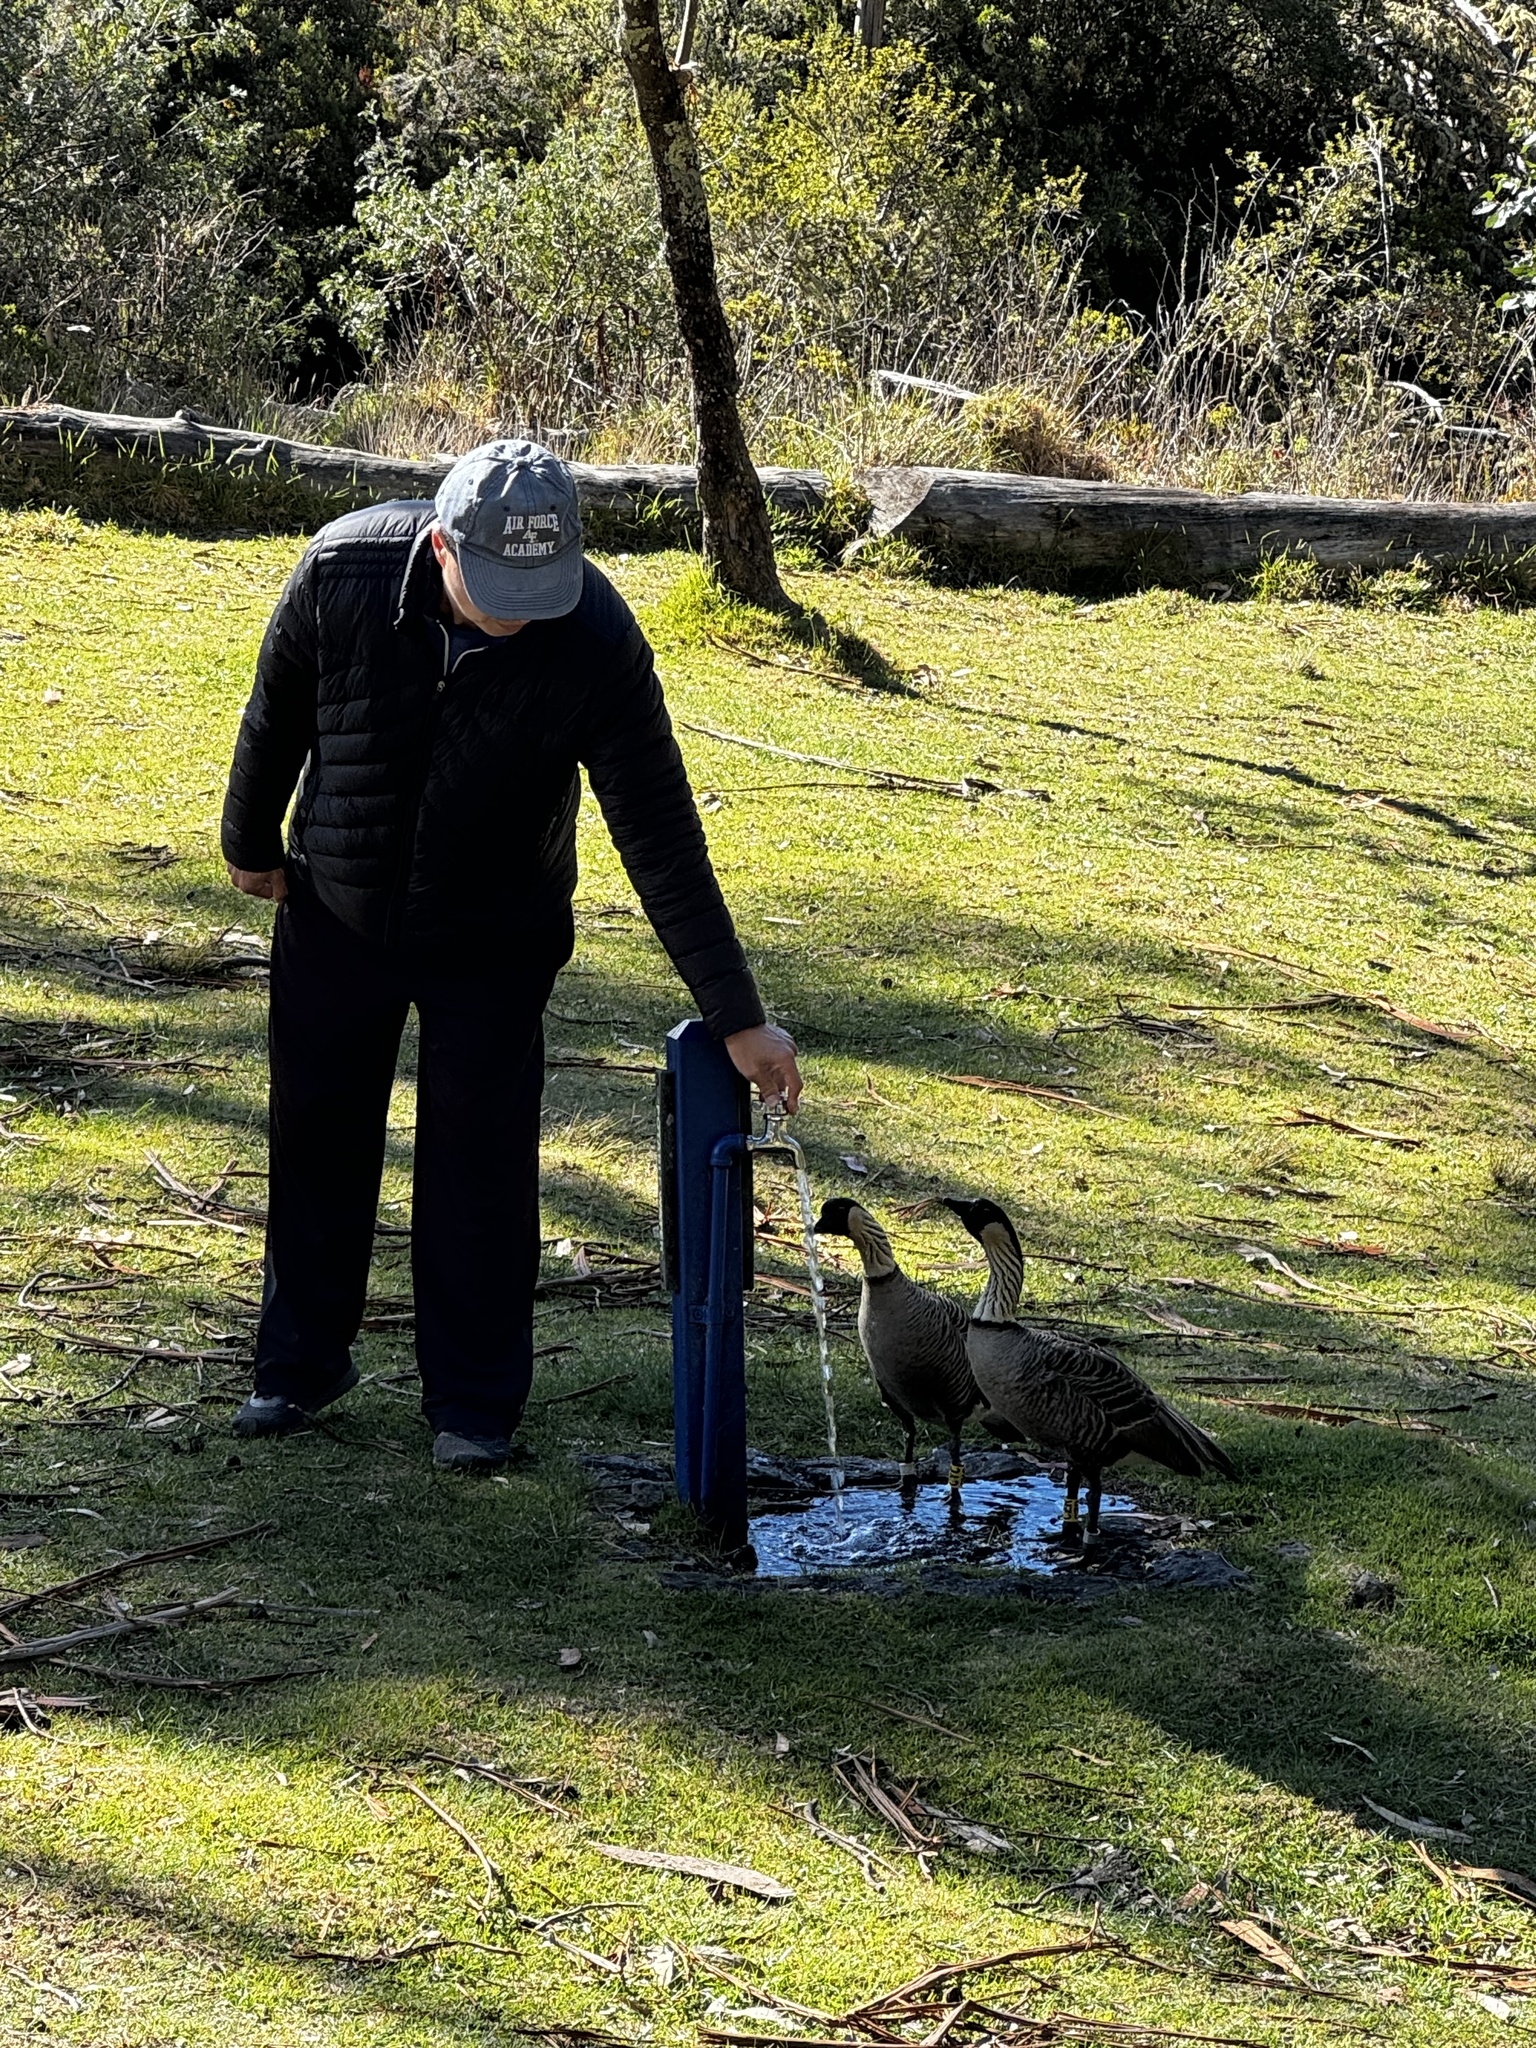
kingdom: Animalia
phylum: Chordata
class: Aves
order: Anseriformes
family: Anatidae
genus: Branta
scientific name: Branta sandvicensis
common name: Nene
